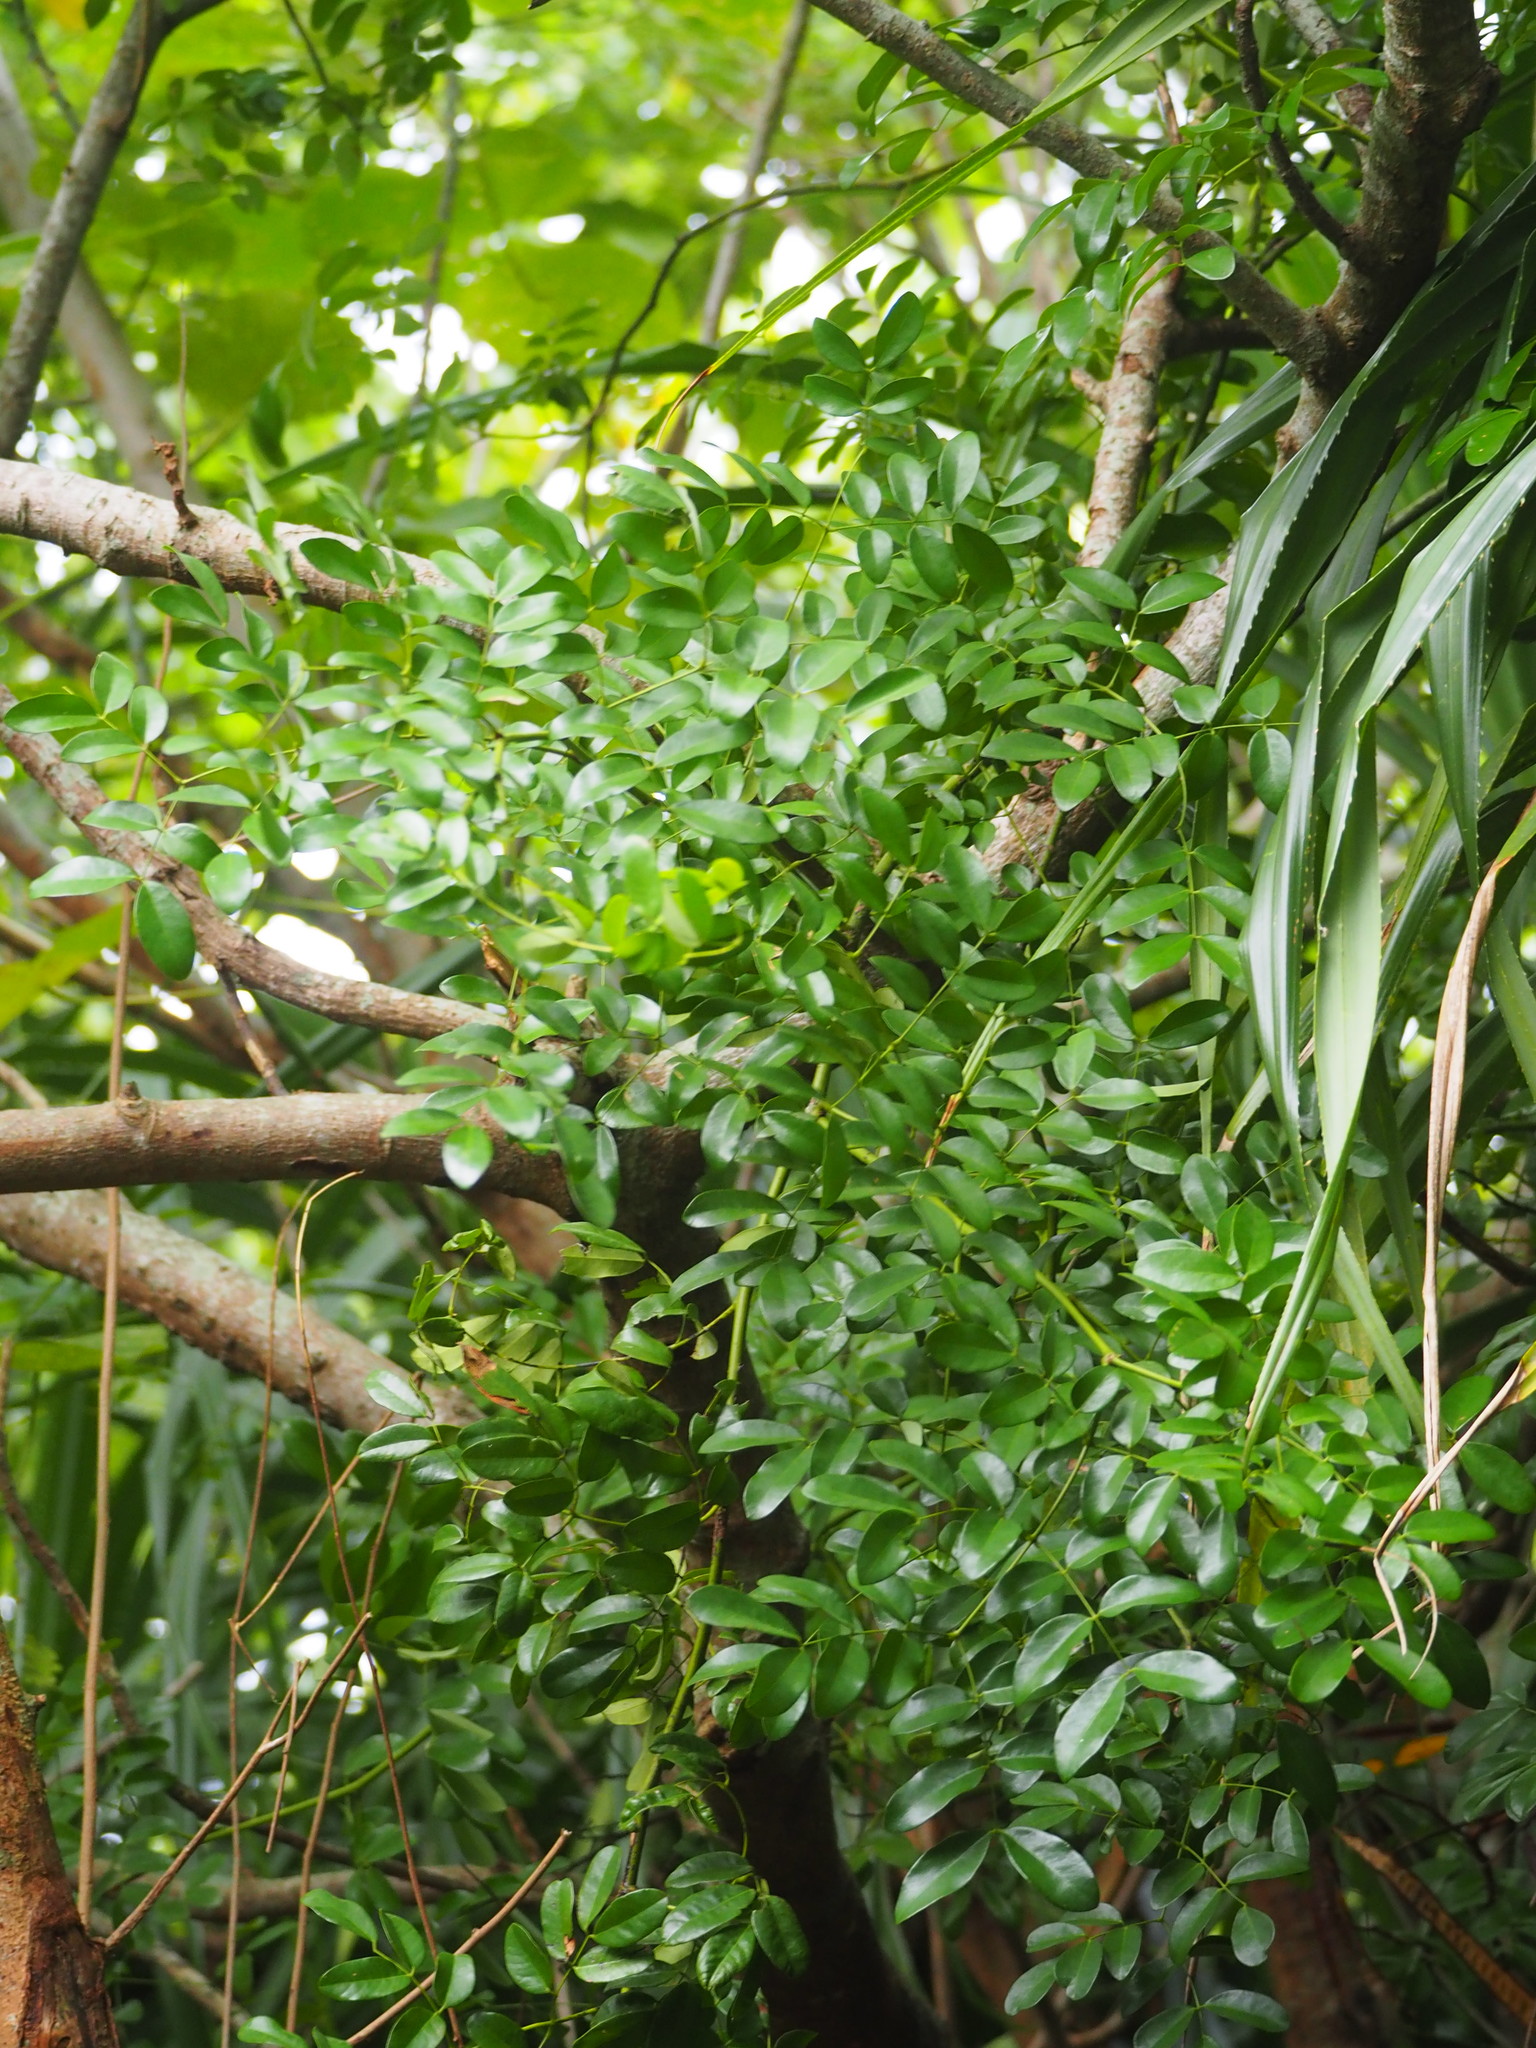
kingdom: Plantae
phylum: Tracheophyta
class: Magnoliopsida
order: Fabales
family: Fabaceae
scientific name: Fabaceae
